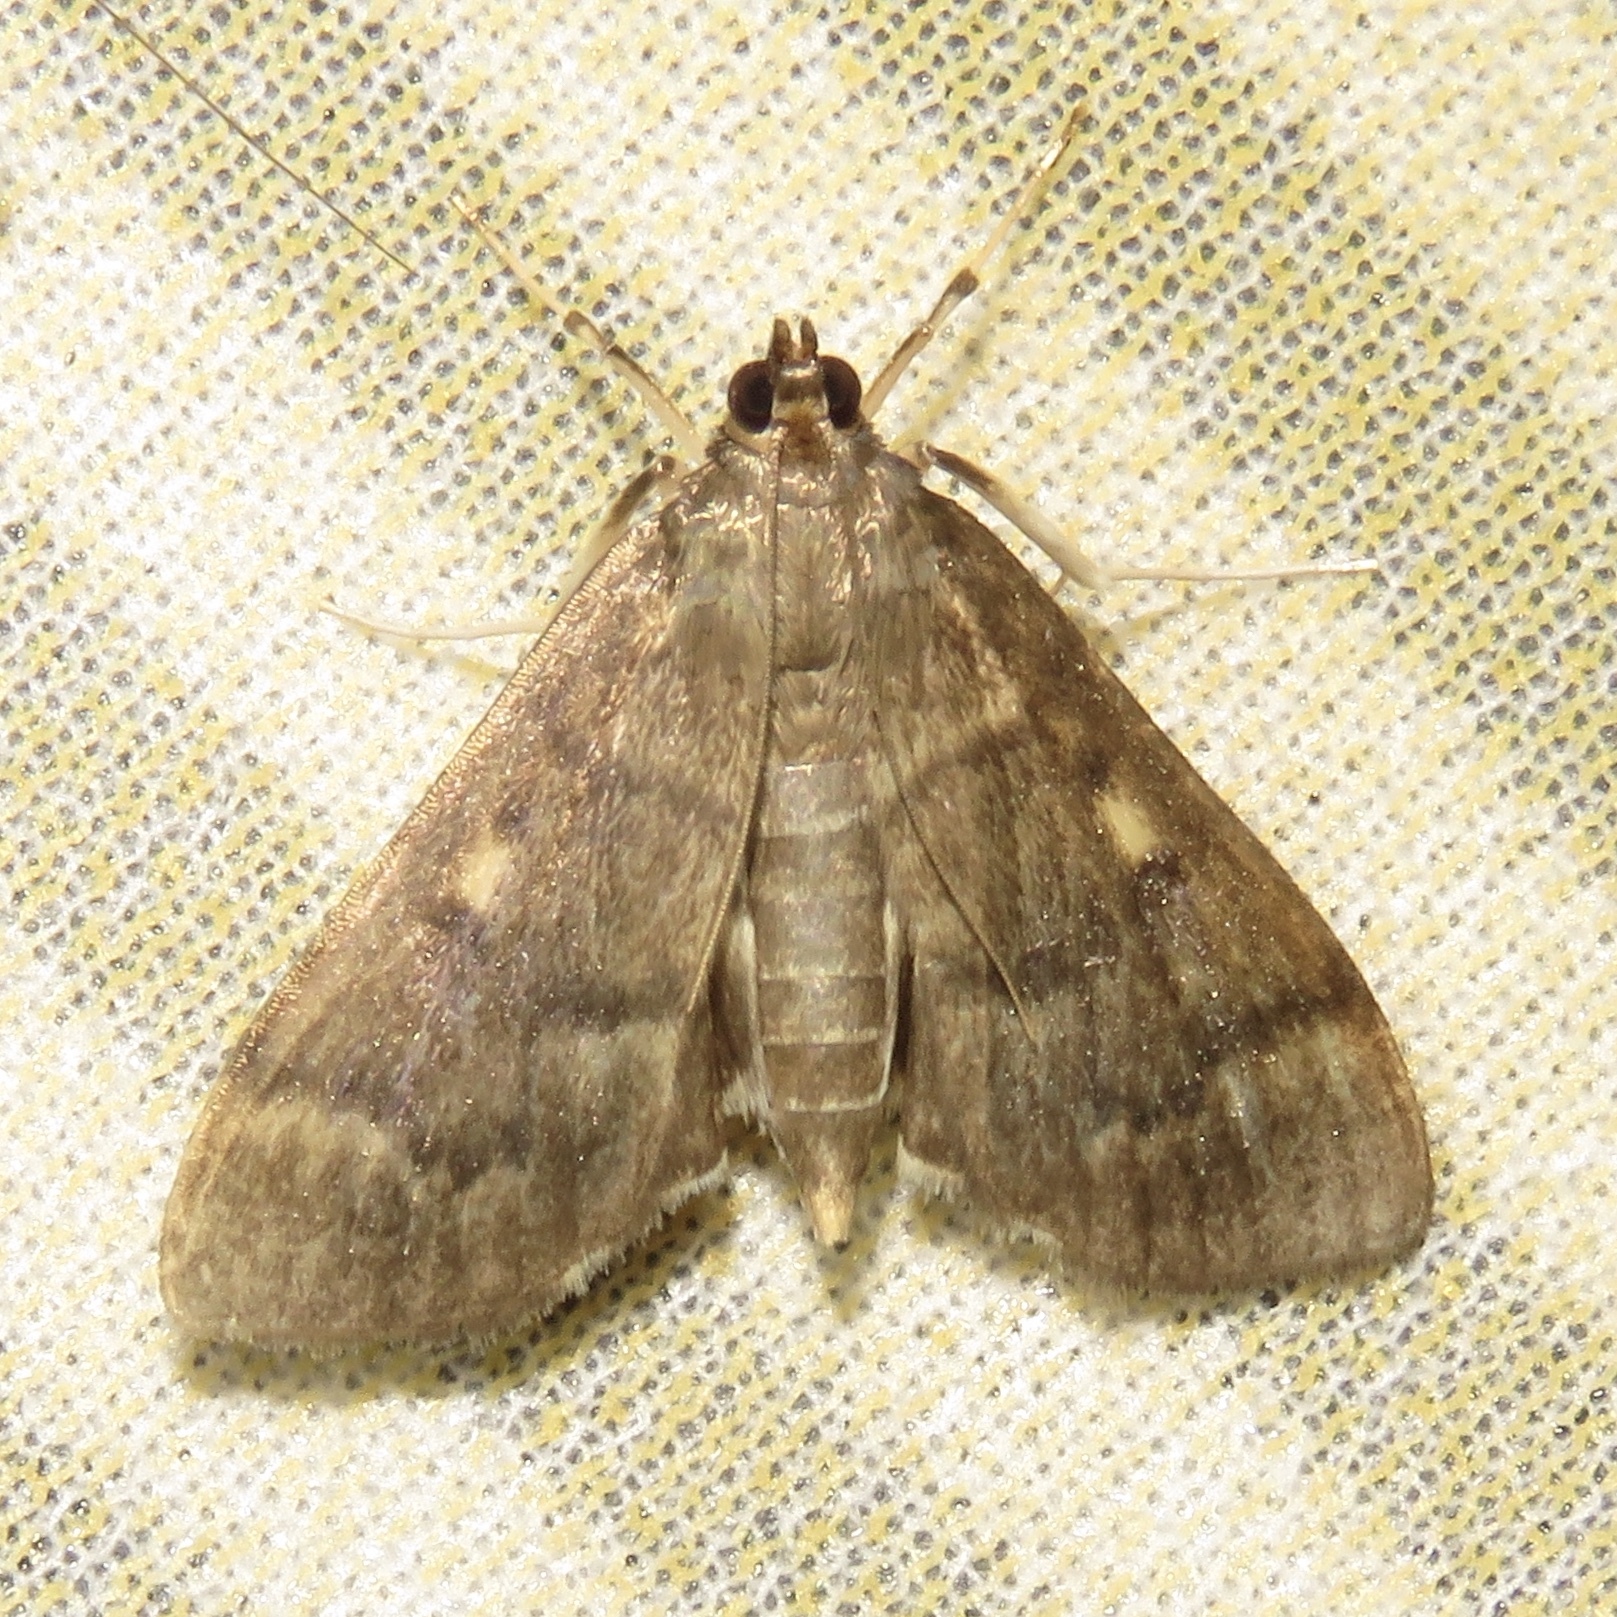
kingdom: Animalia
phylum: Arthropoda
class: Insecta
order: Lepidoptera
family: Crambidae
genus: Herpetogramma
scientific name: Herpetogramma aeglealis
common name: Serpentine webworm moth
